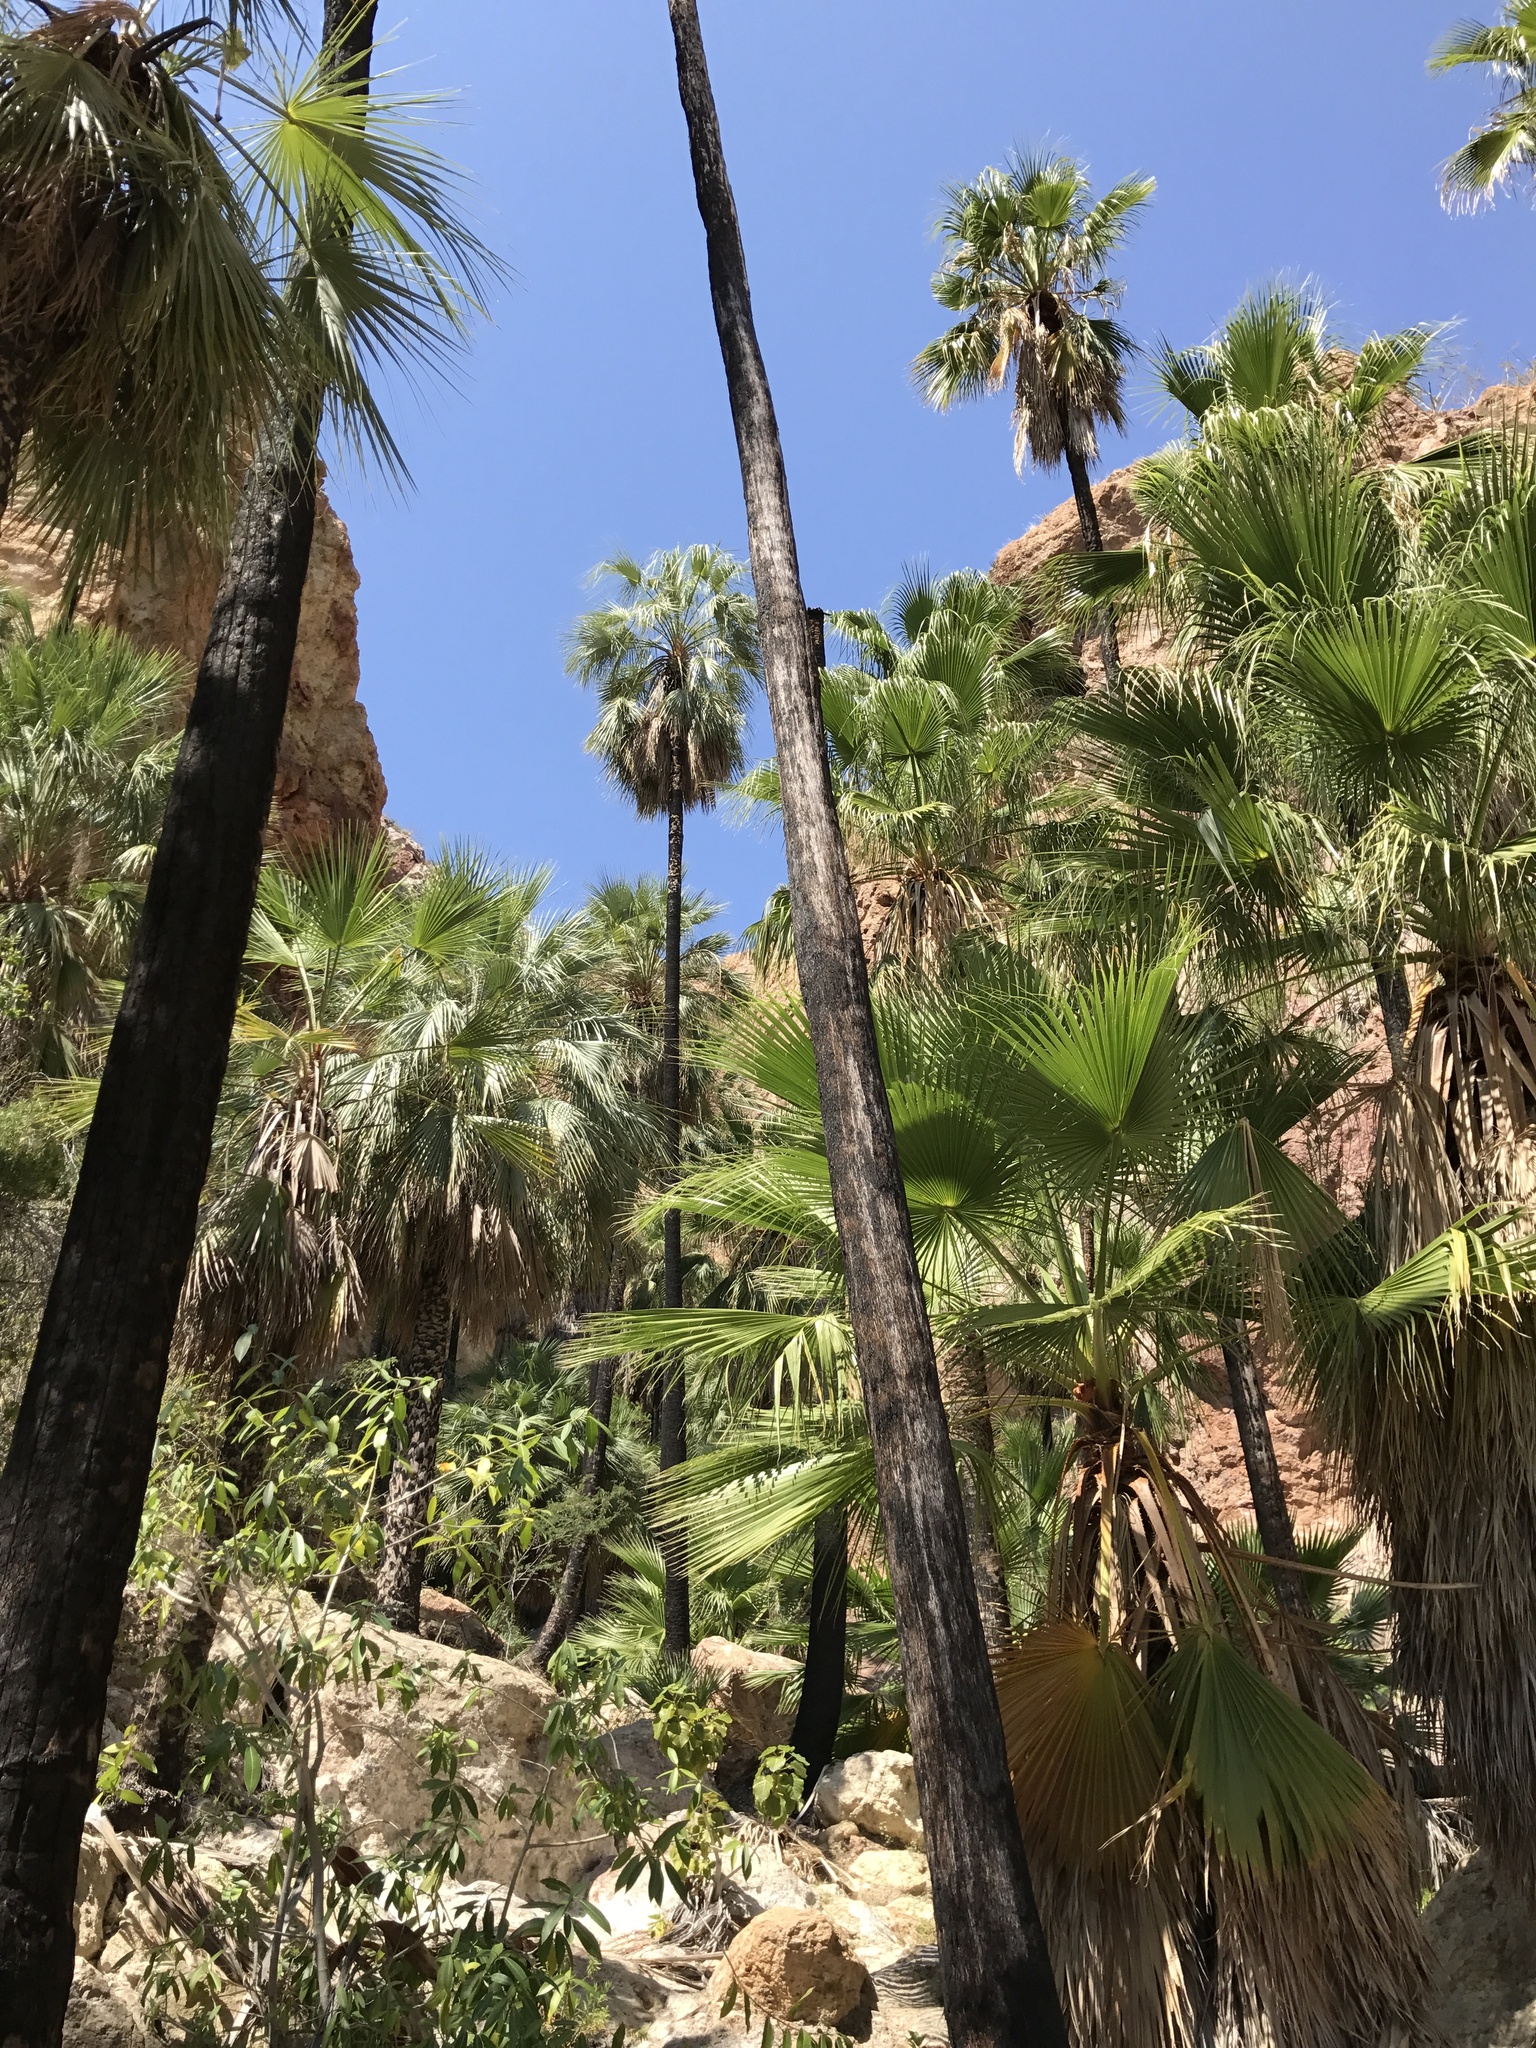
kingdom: Plantae
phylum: Tracheophyta
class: Liliopsida
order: Arecales
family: Arecaceae
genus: Washingtonia
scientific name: Washingtonia robusta
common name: Mexican fan palm
